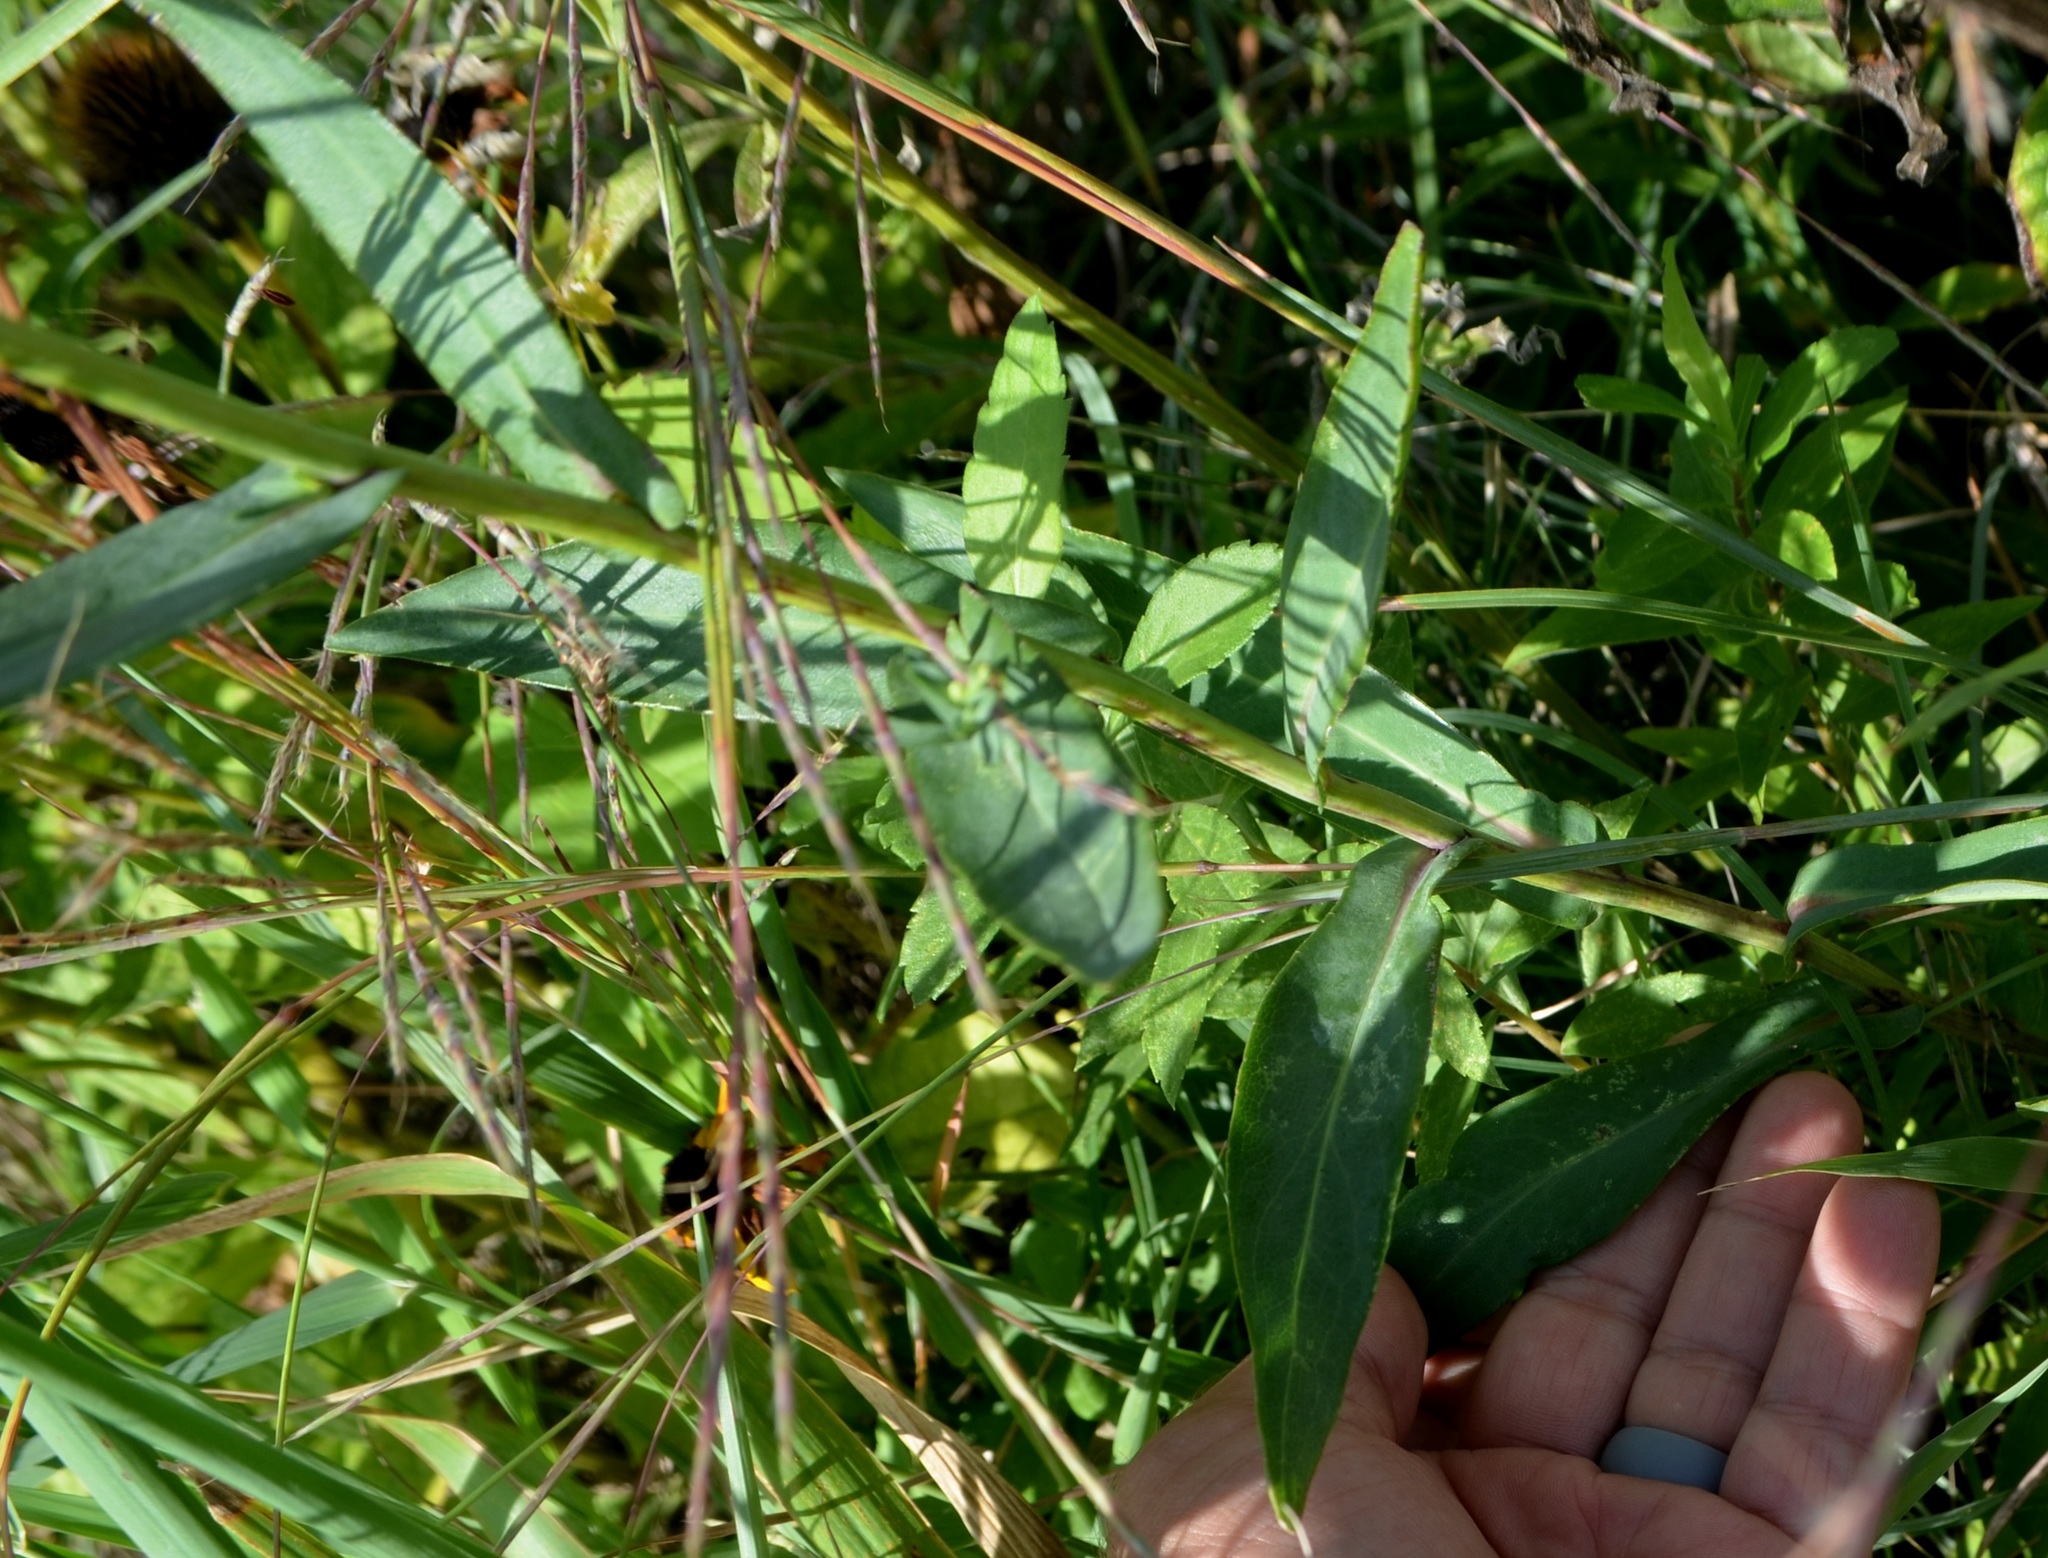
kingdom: Plantae
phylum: Tracheophyta
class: Magnoliopsida
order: Asterales
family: Asteraceae
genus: Symphyotrichum
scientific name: Symphyotrichum laeve
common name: Glaucous aster
